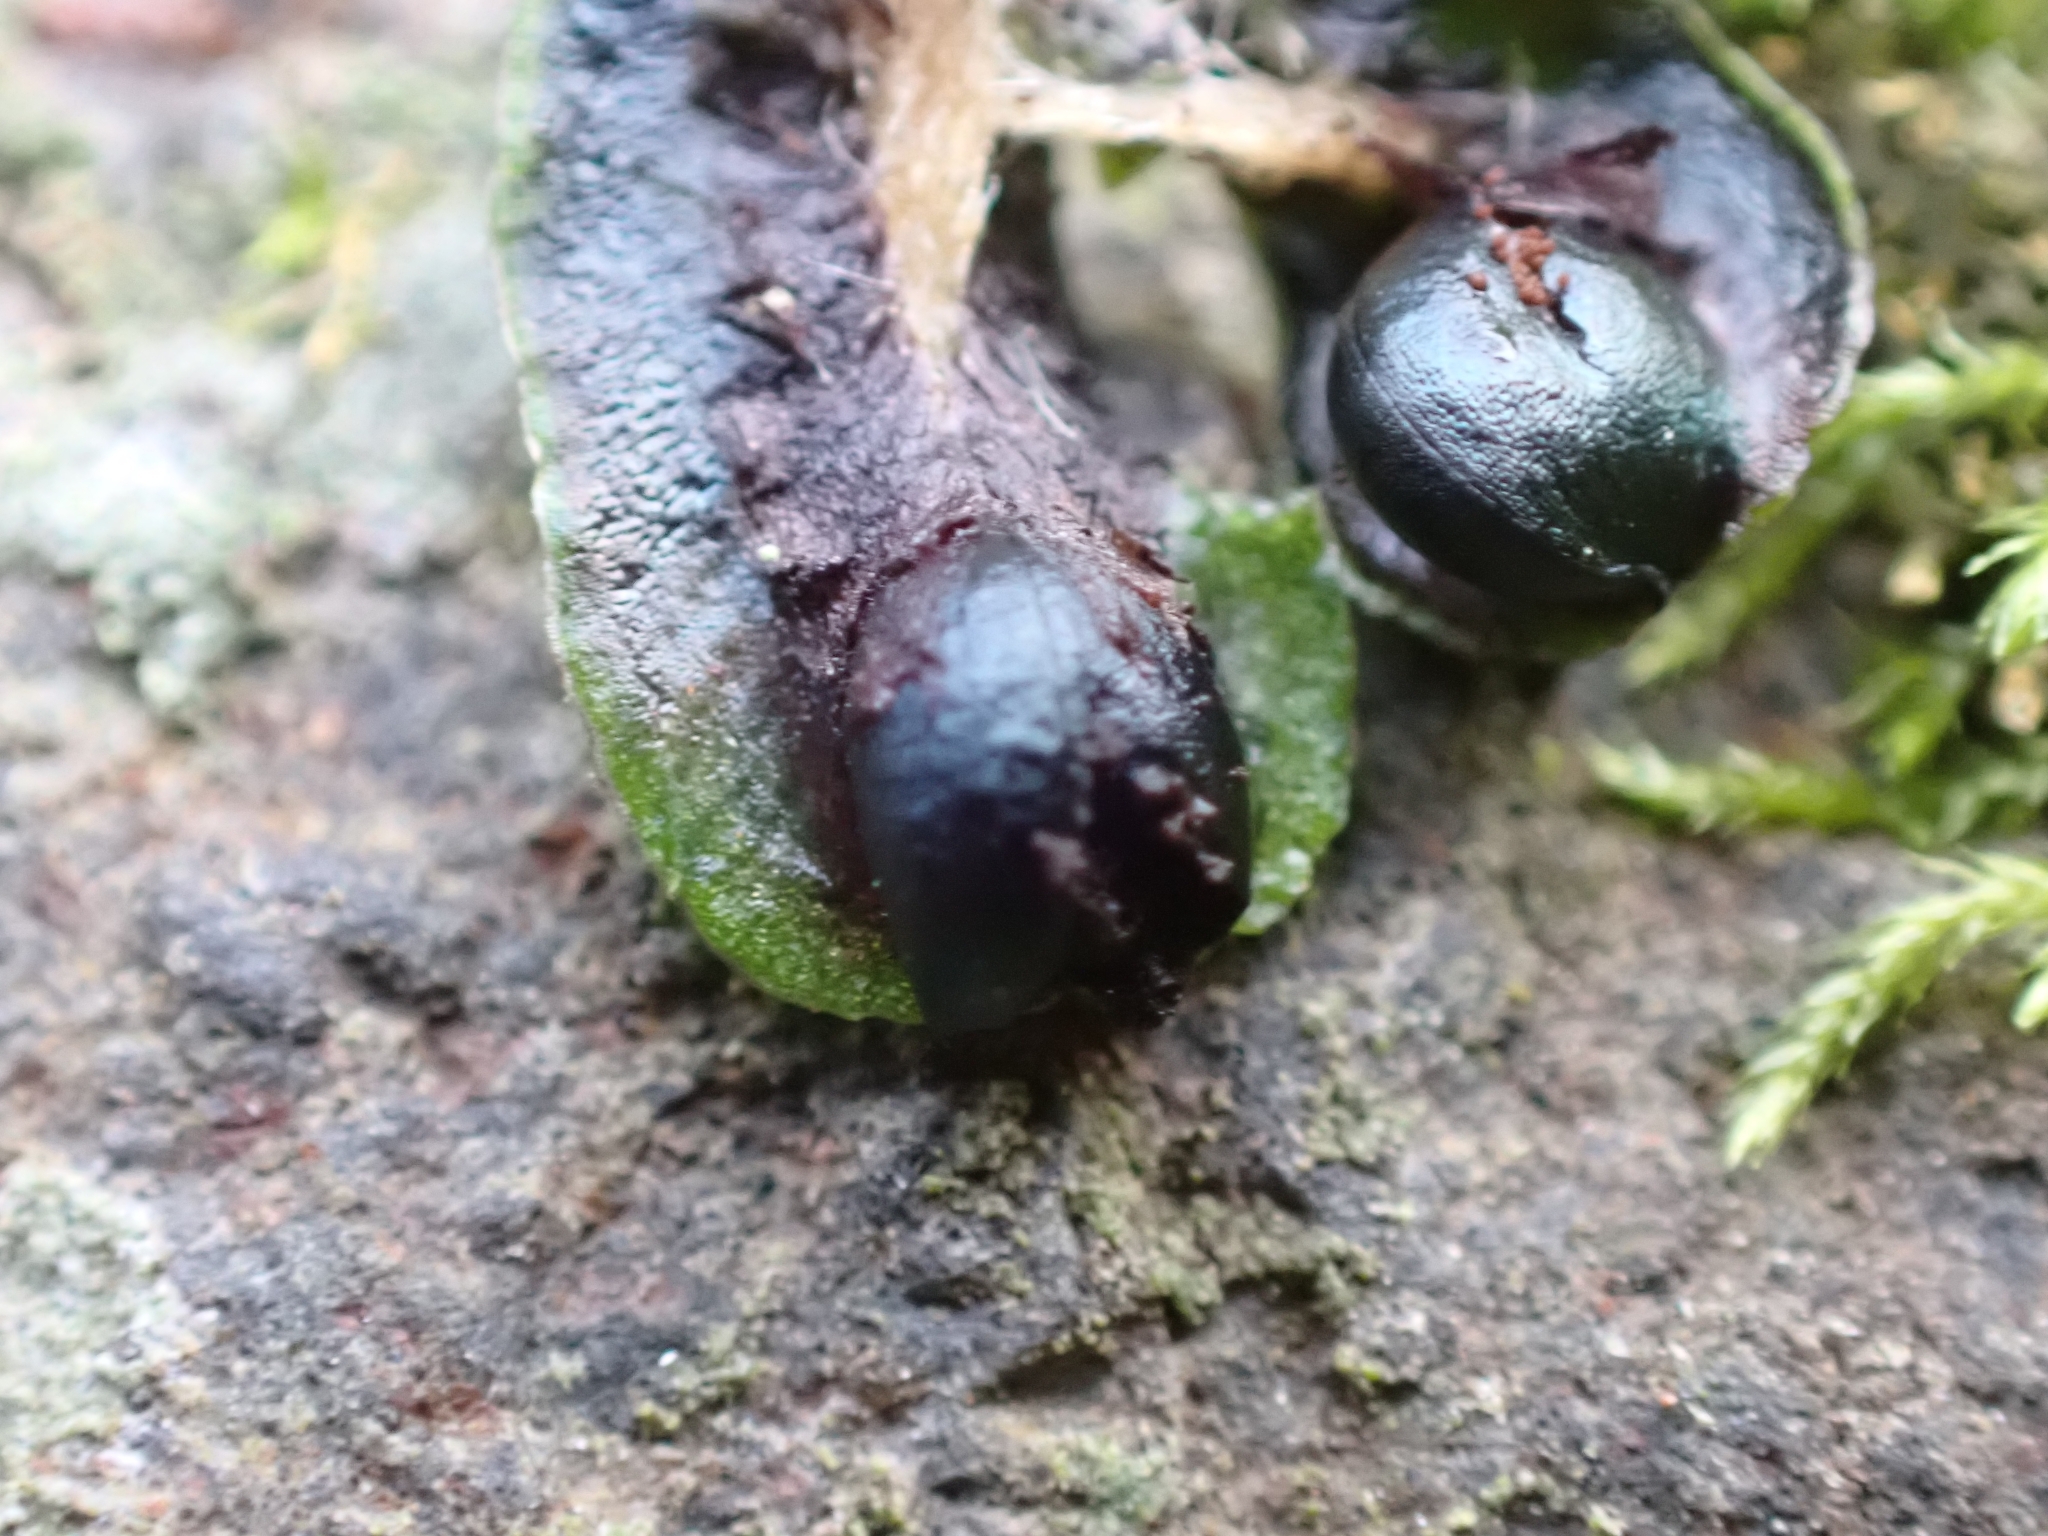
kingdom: Plantae
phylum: Marchantiophyta
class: Marchantiopsida
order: Marchantiales
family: Targioniaceae
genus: Targionia
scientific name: Targionia hypophylla
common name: Orobus-seed liverwort
